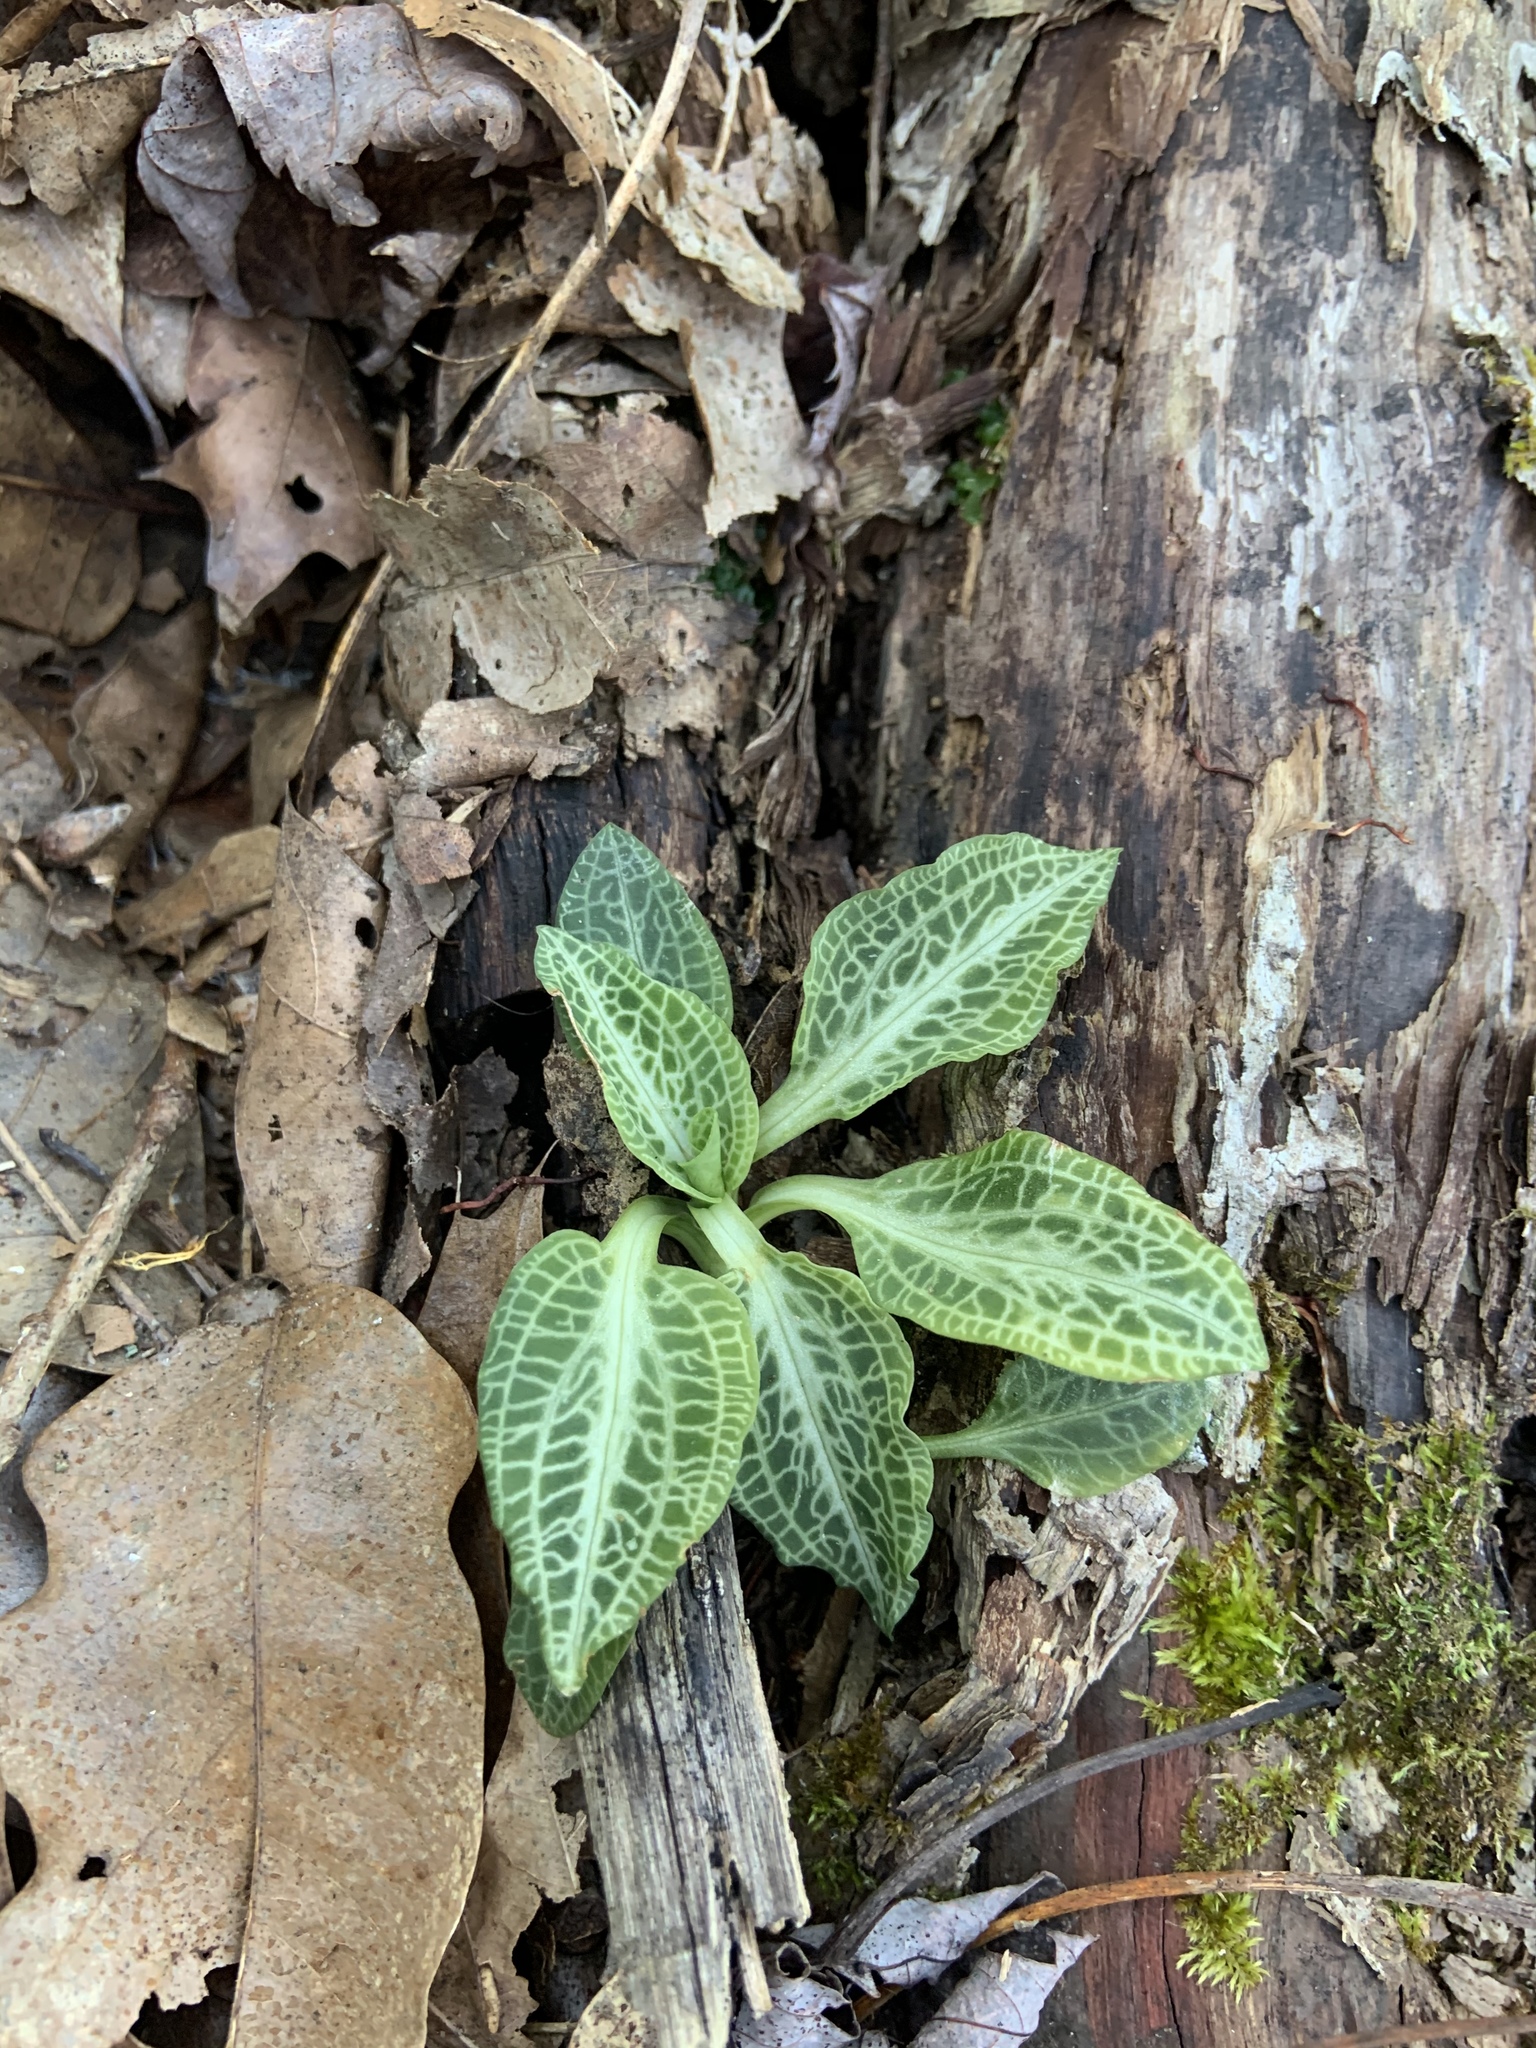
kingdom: Plantae
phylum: Tracheophyta
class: Liliopsida
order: Asparagales
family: Orchidaceae
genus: Goodyera
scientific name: Goodyera pubescens
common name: Downy rattlesnake-plantain
